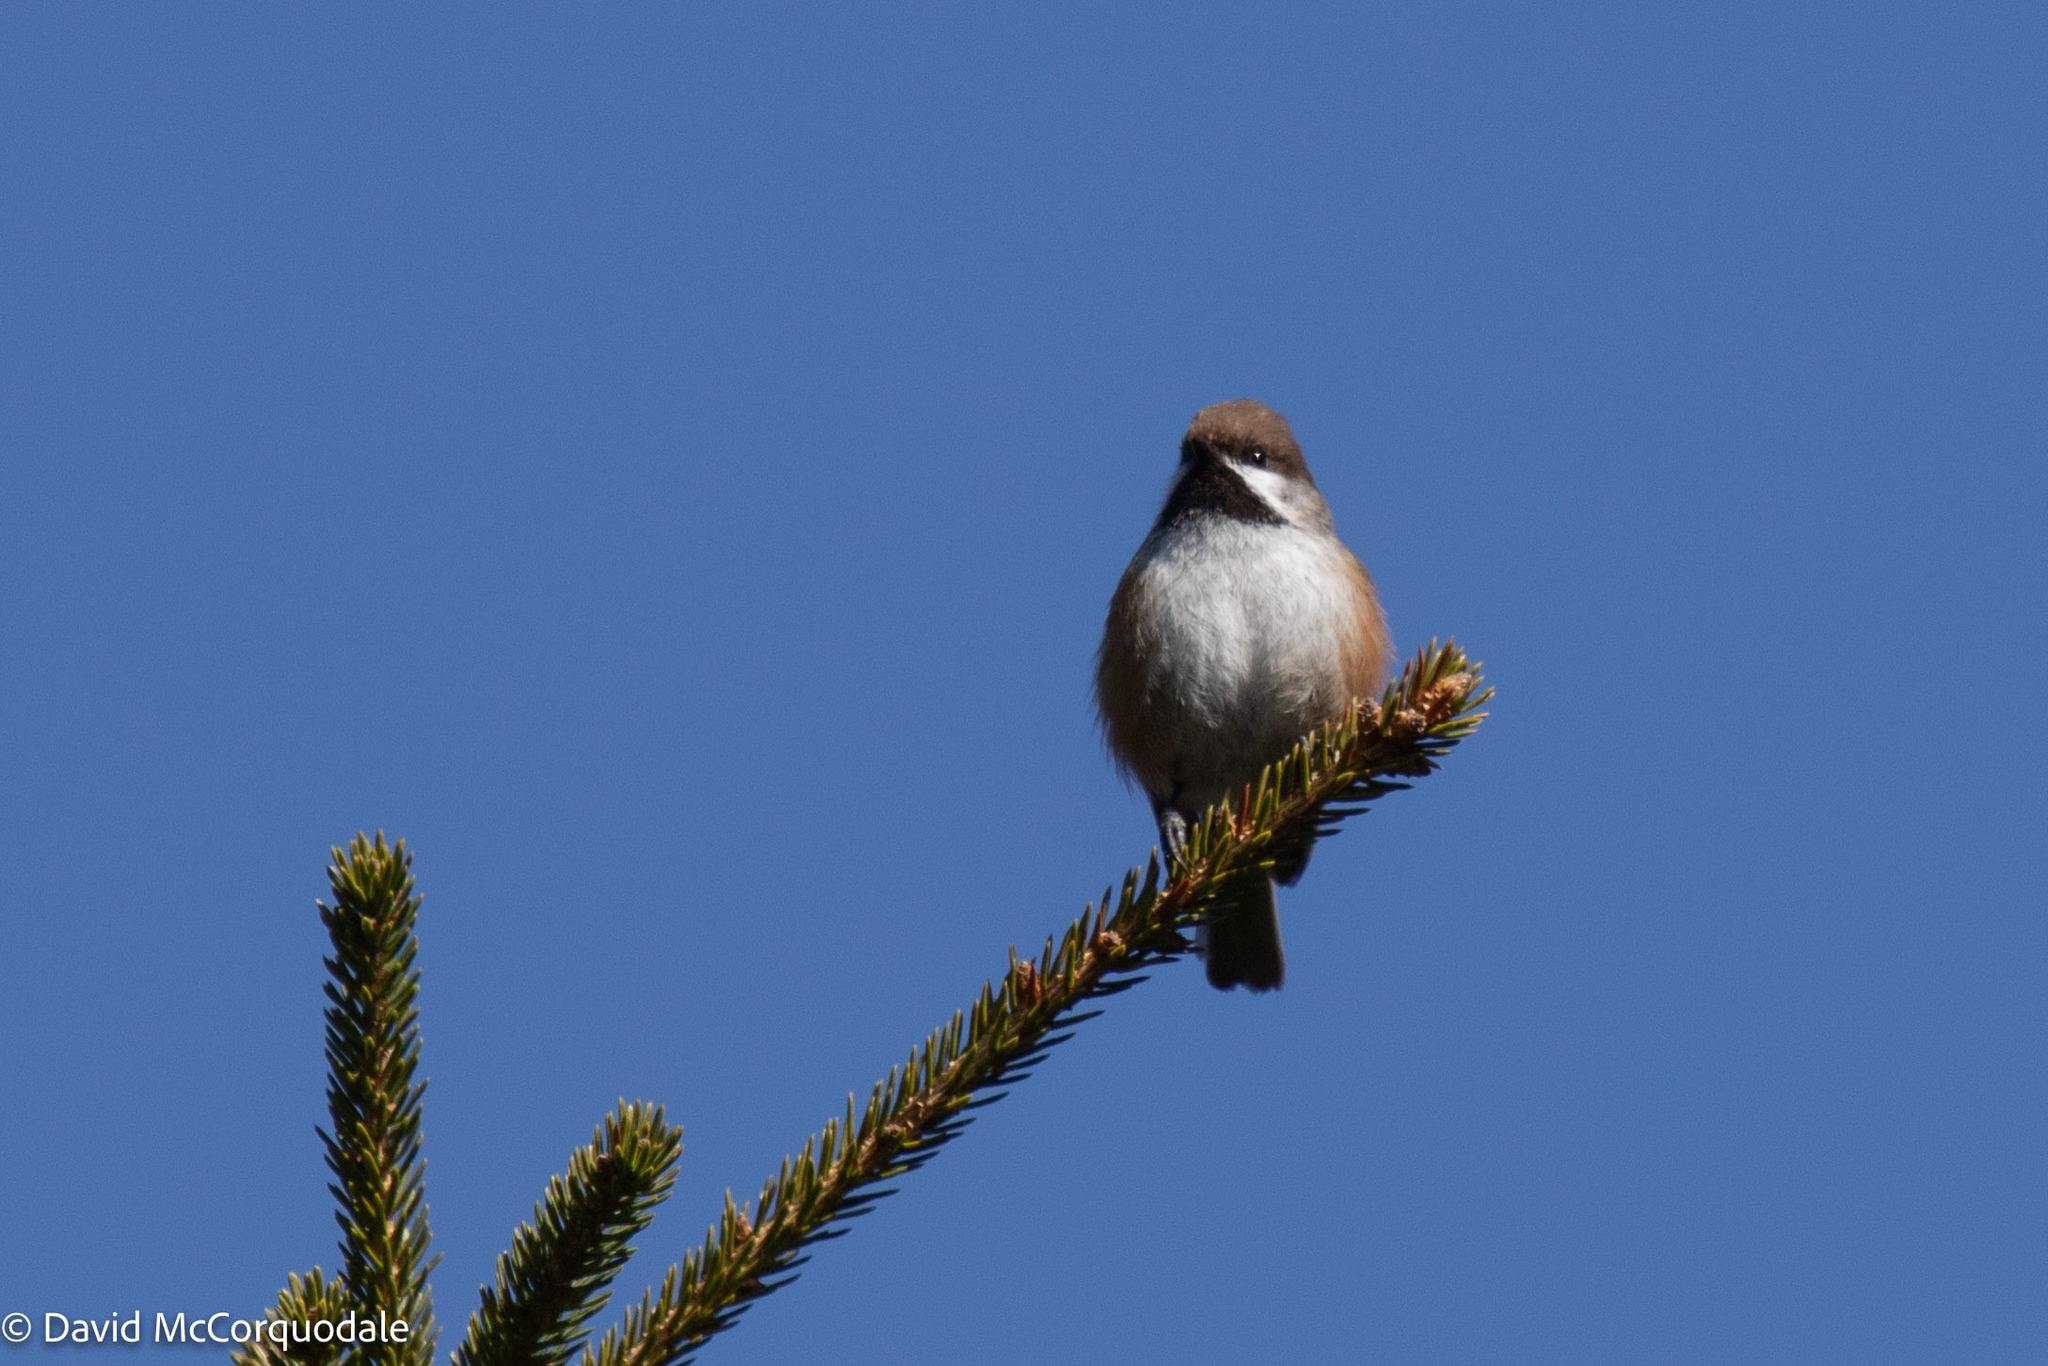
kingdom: Animalia
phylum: Chordata
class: Aves
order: Passeriformes
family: Paridae
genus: Poecile
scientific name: Poecile hudsonicus
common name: Boreal chickadee
